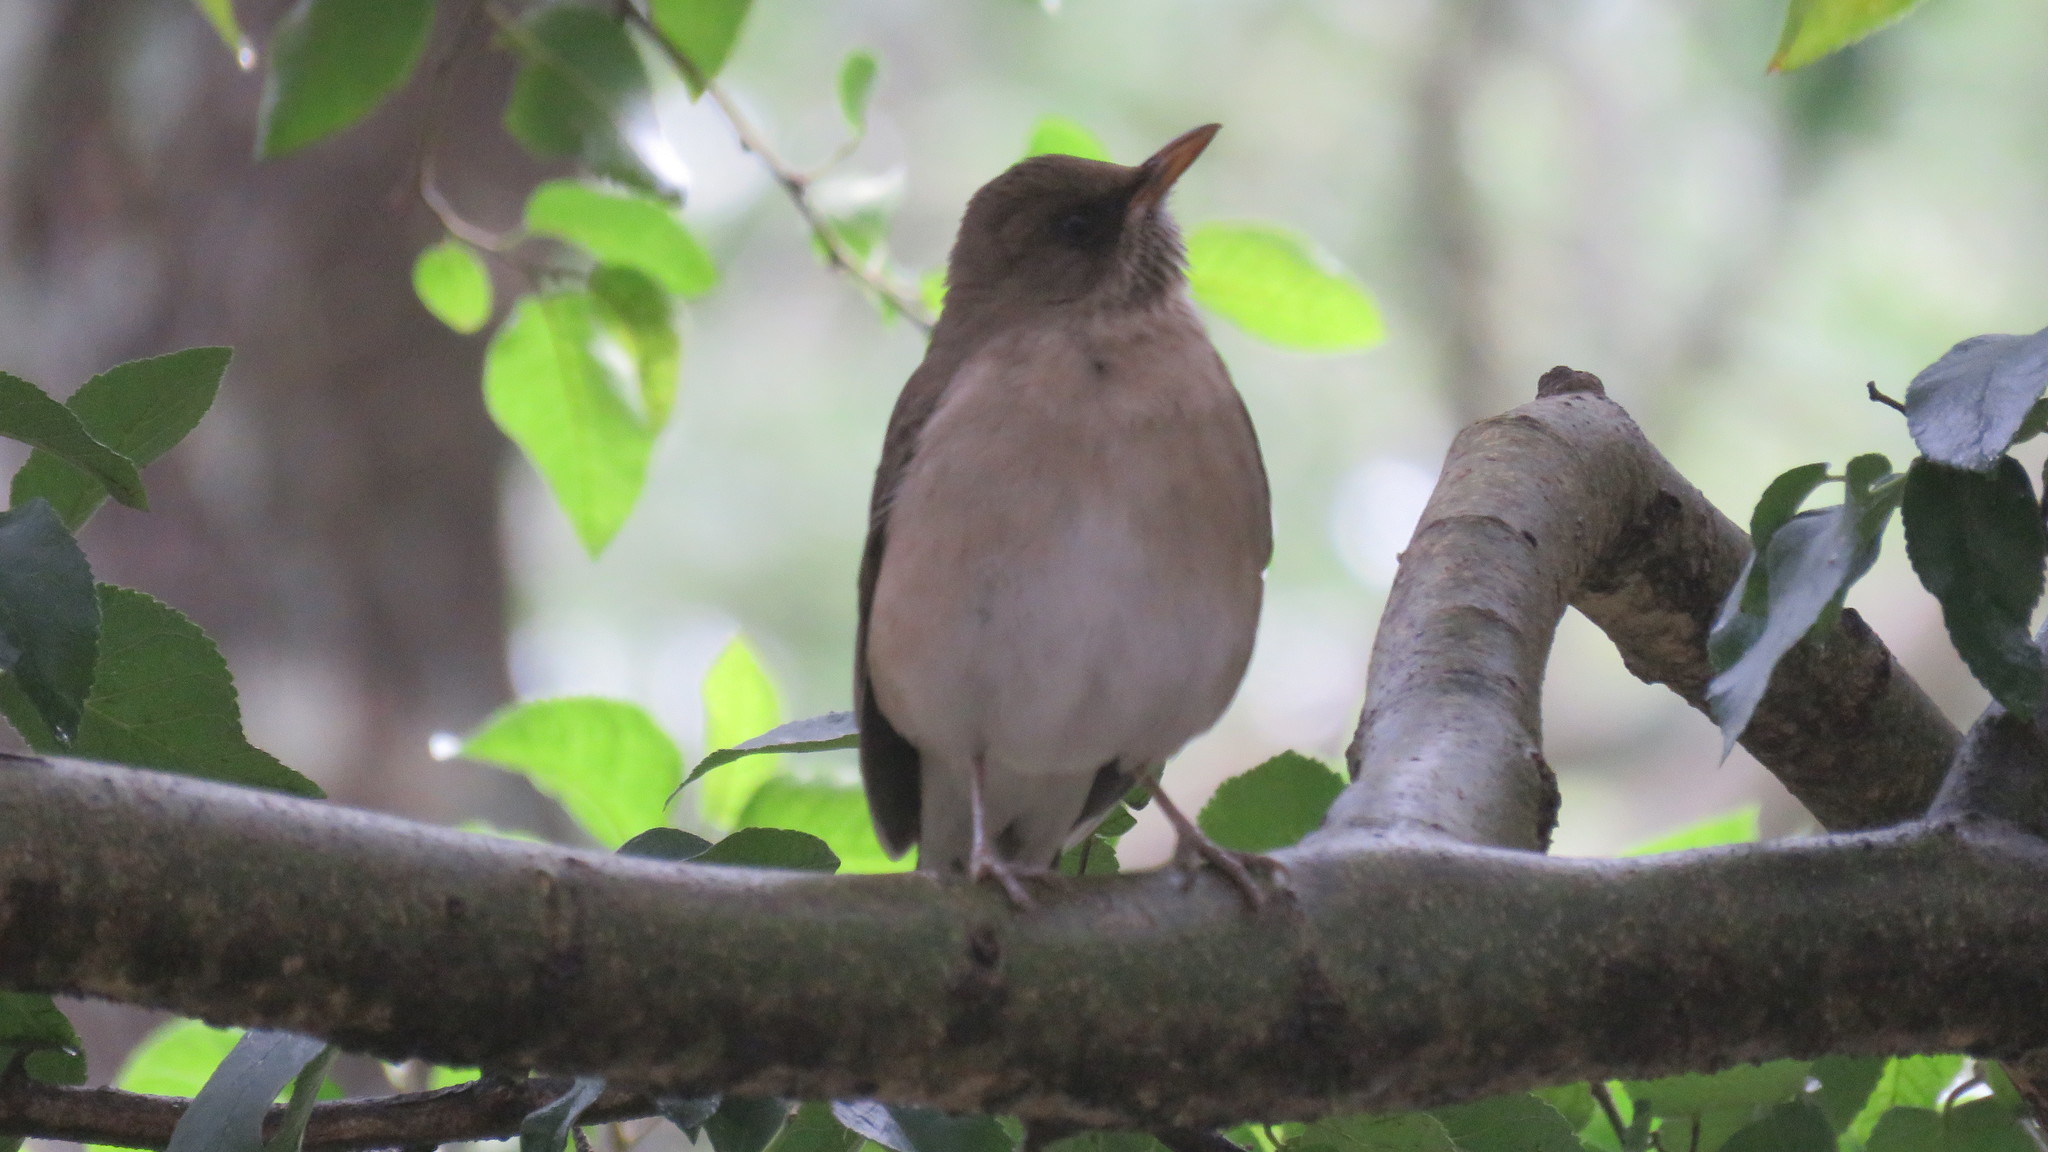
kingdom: Animalia
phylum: Chordata
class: Aves
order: Passeriformes
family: Turdidae
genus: Turdus
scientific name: Turdus amaurochalinus
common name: Creamy-bellied thrush
